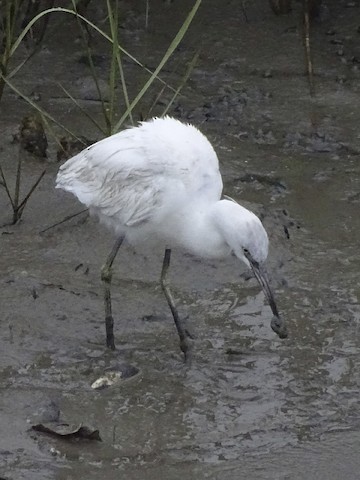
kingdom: Animalia
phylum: Chordata
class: Aves
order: Pelecaniformes
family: Ardeidae
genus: Egretta
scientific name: Egretta caerulea
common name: Little blue heron
